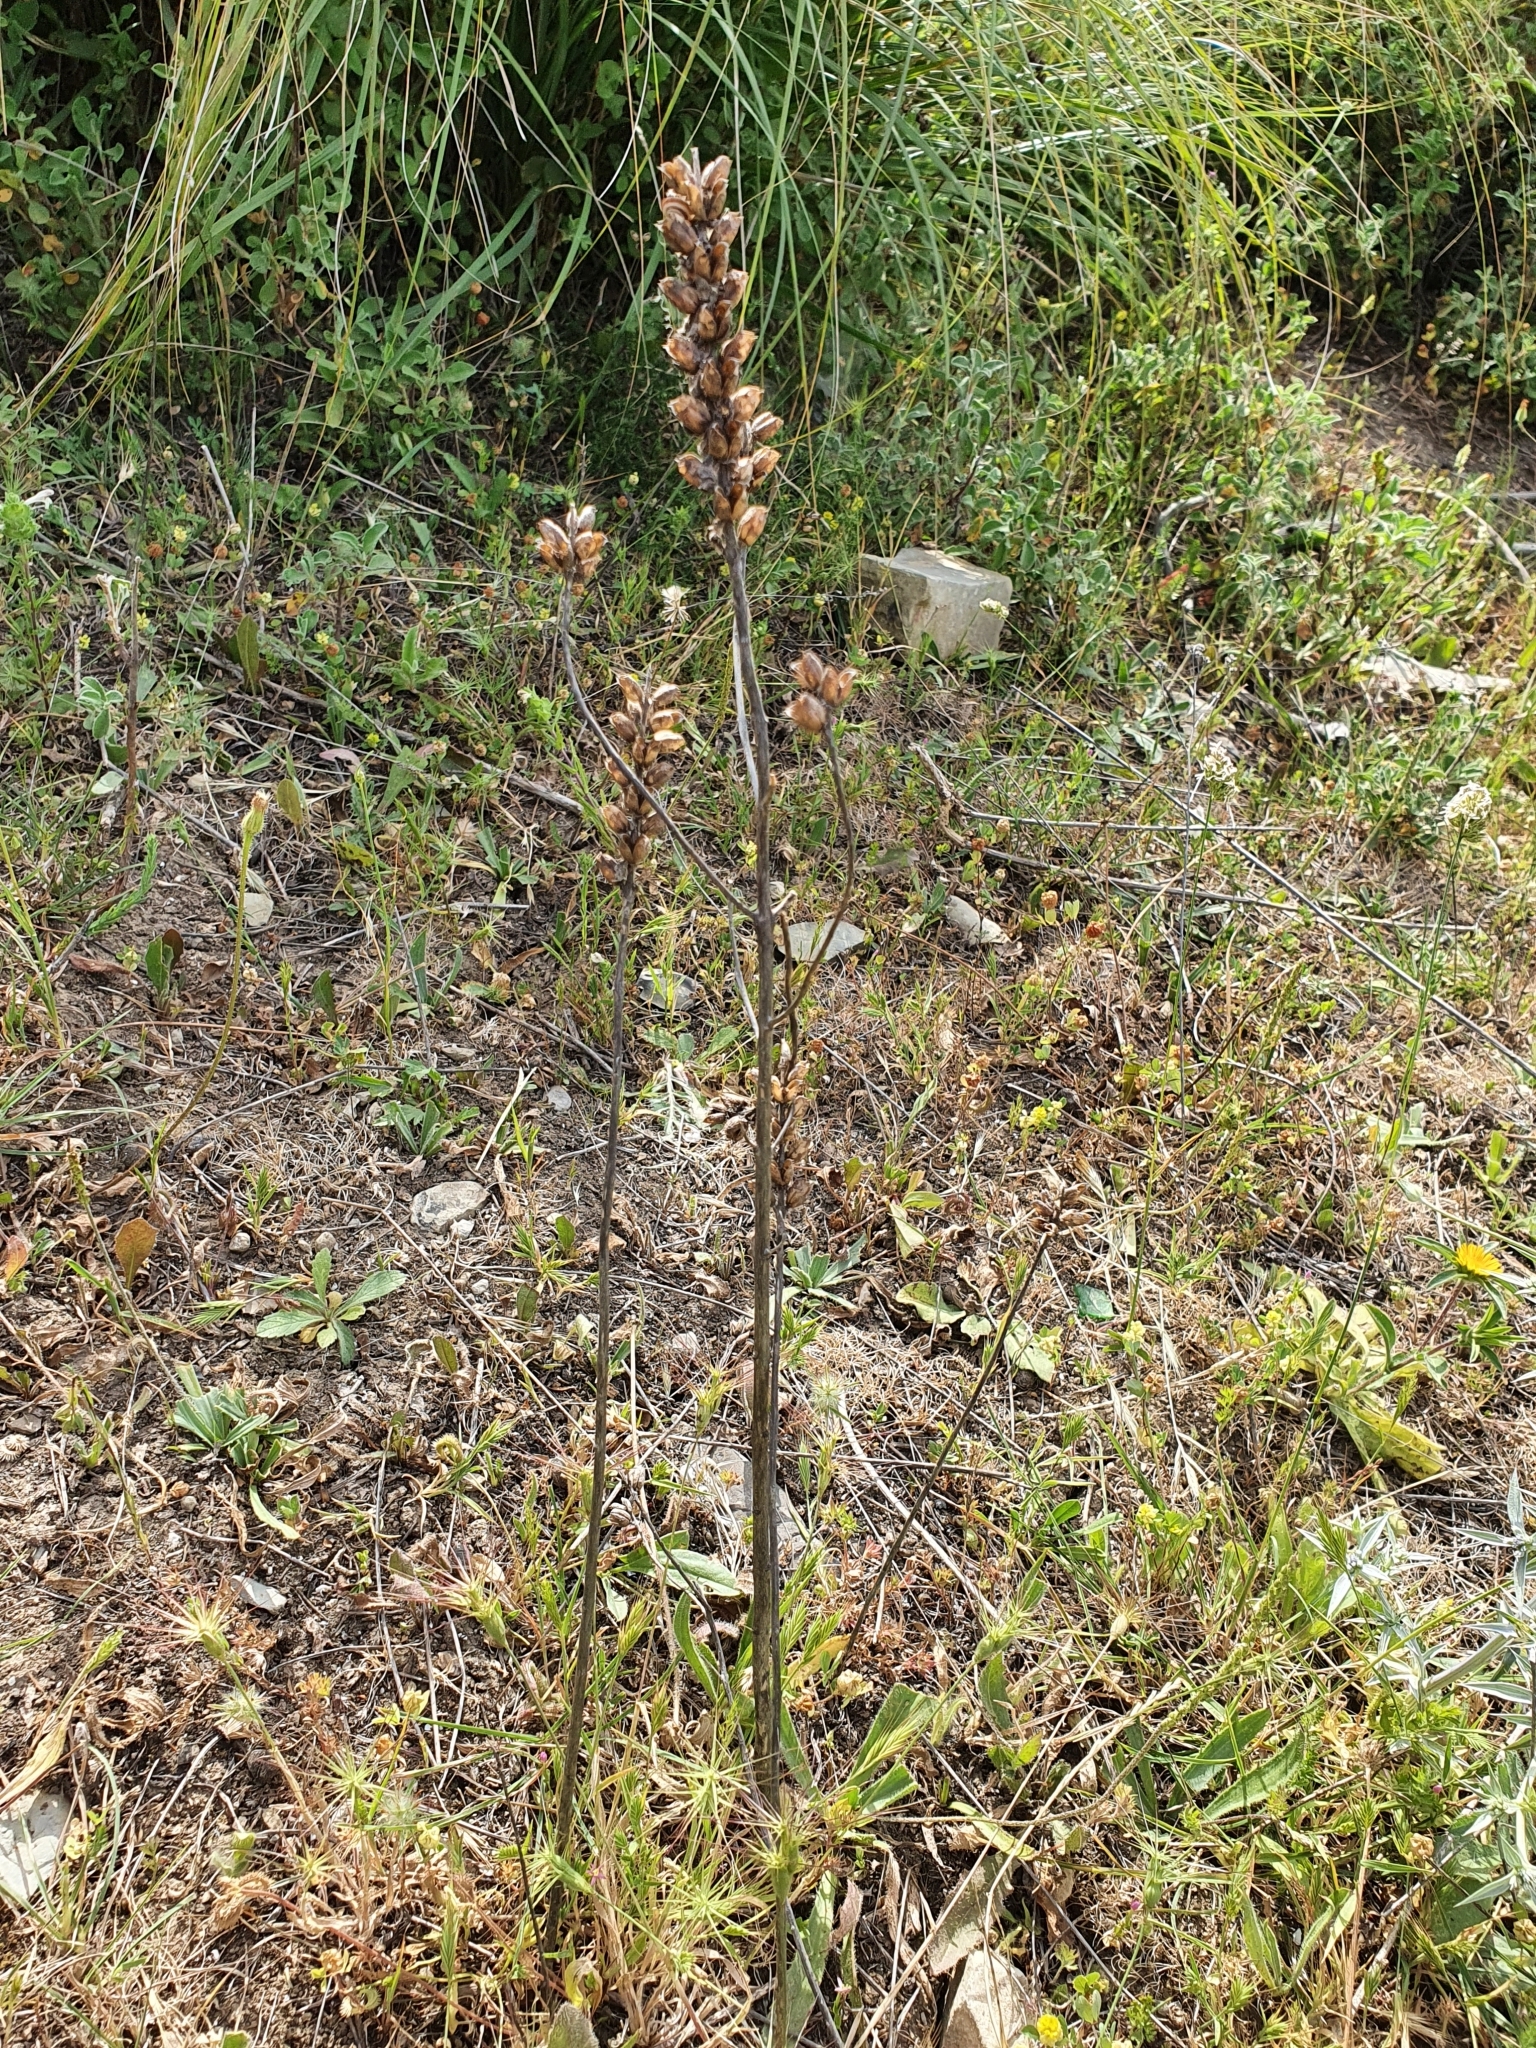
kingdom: Plantae
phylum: Tracheophyta
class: Magnoliopsida
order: Lamiales
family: Orobanchaceae
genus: Bellardia
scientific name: Bellardia trixago
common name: Mediterranean lineseed
